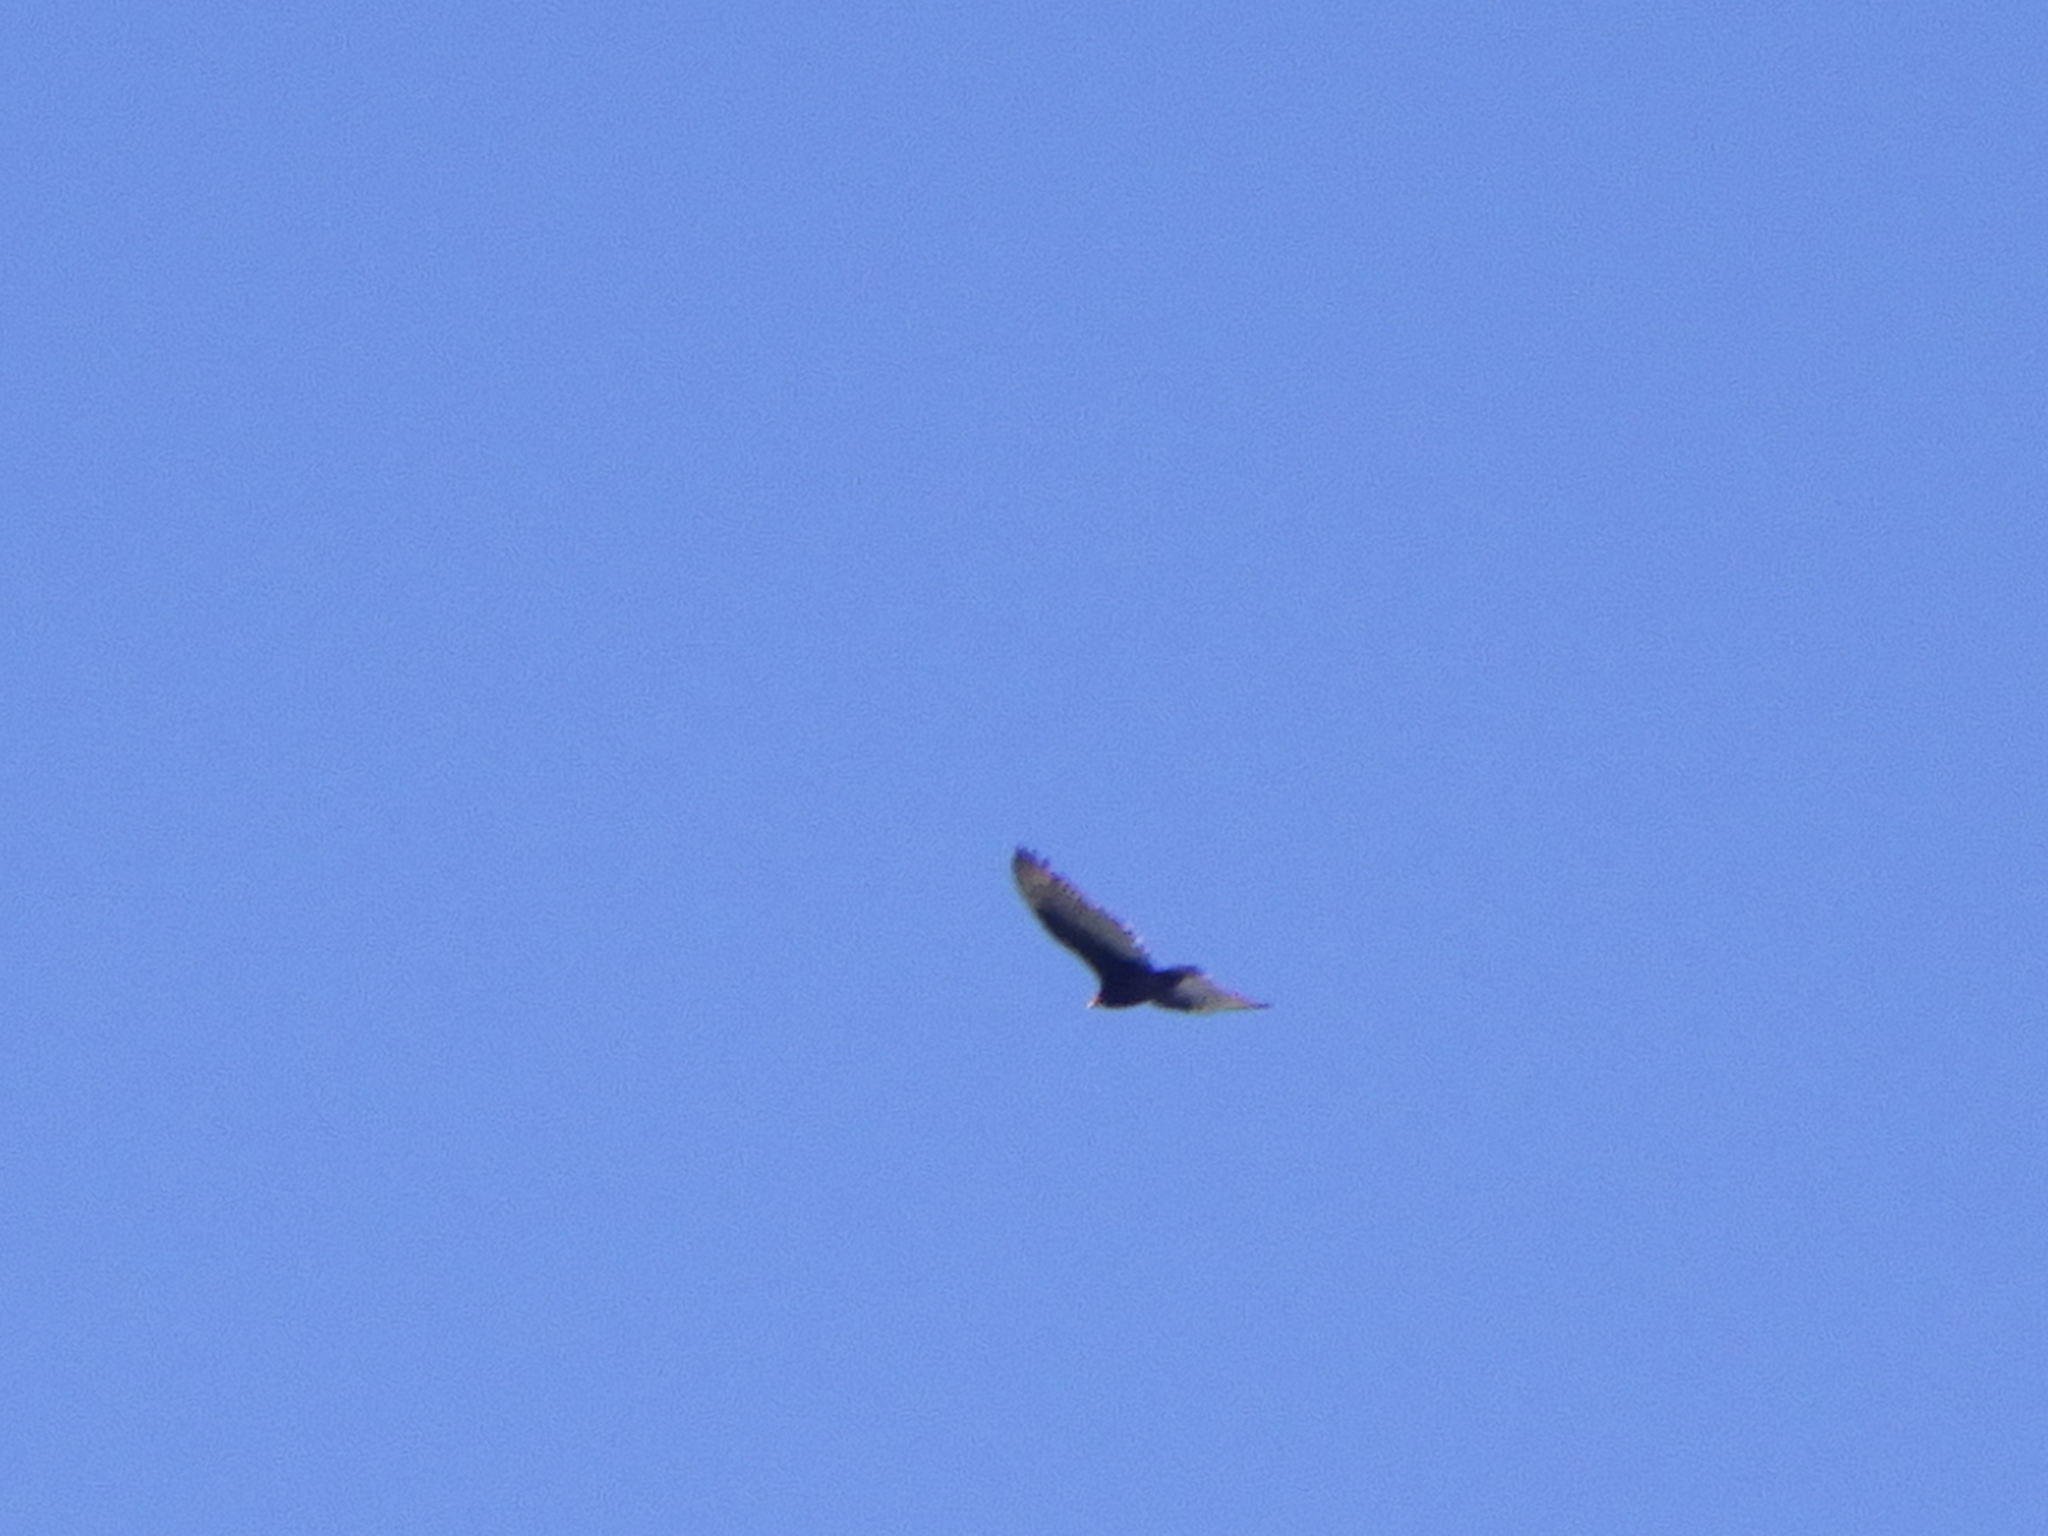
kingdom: Animalia
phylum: Chordata
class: Aves
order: Accipitriformes
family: Cathartidae
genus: Cathartes
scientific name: Cathartes aura
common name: Turkey vulture
